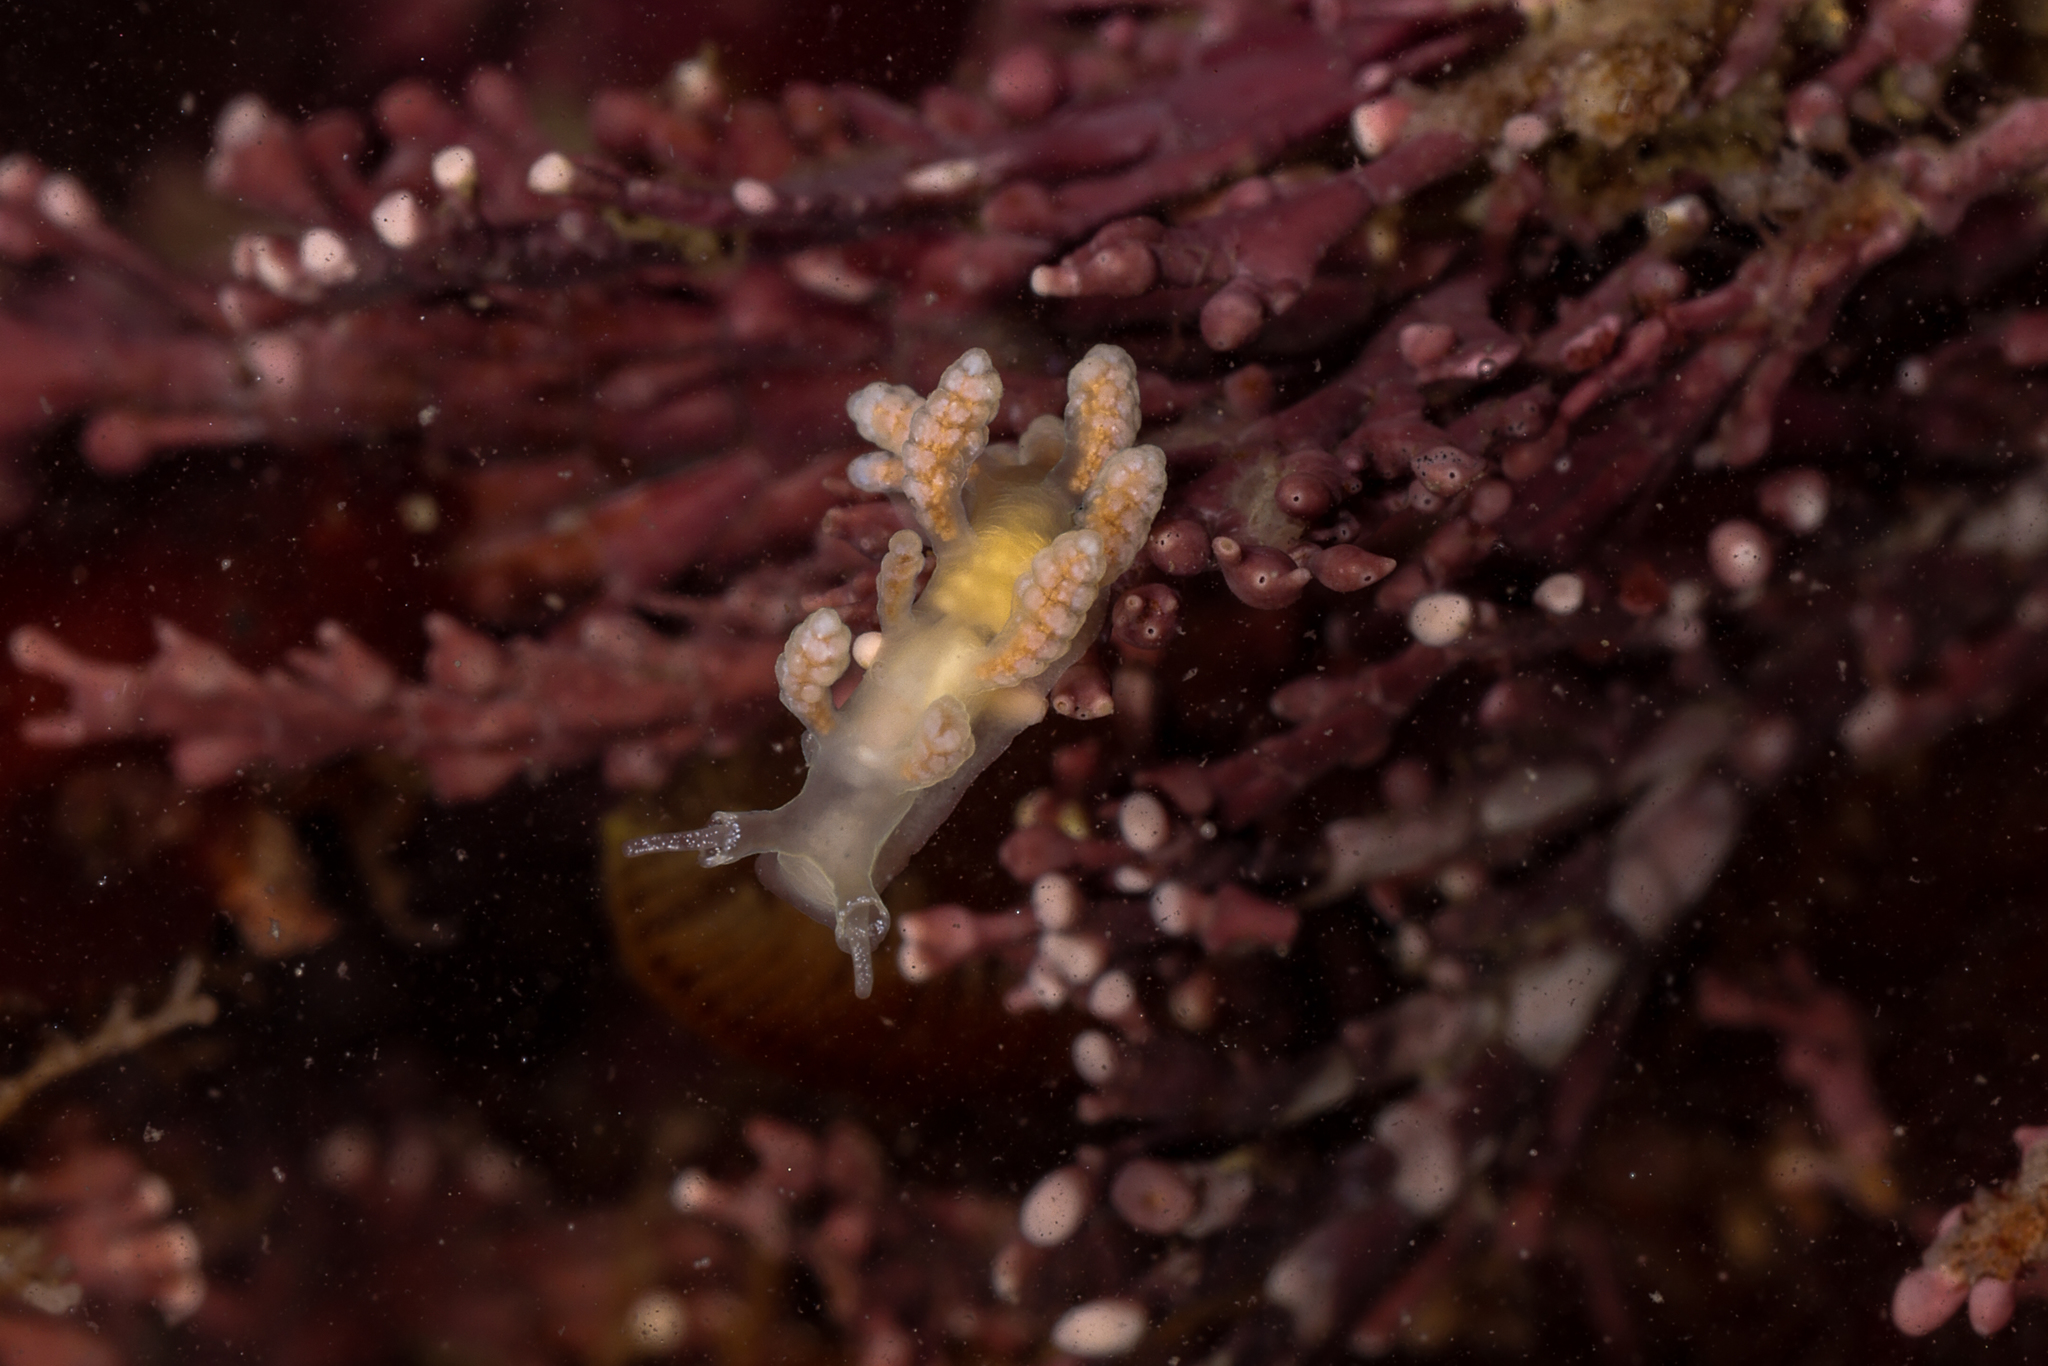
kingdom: Animalia
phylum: Mollusca
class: Gastropoda
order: Nudibranchia
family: Dotidae
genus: Doto
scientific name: Doto amyra
